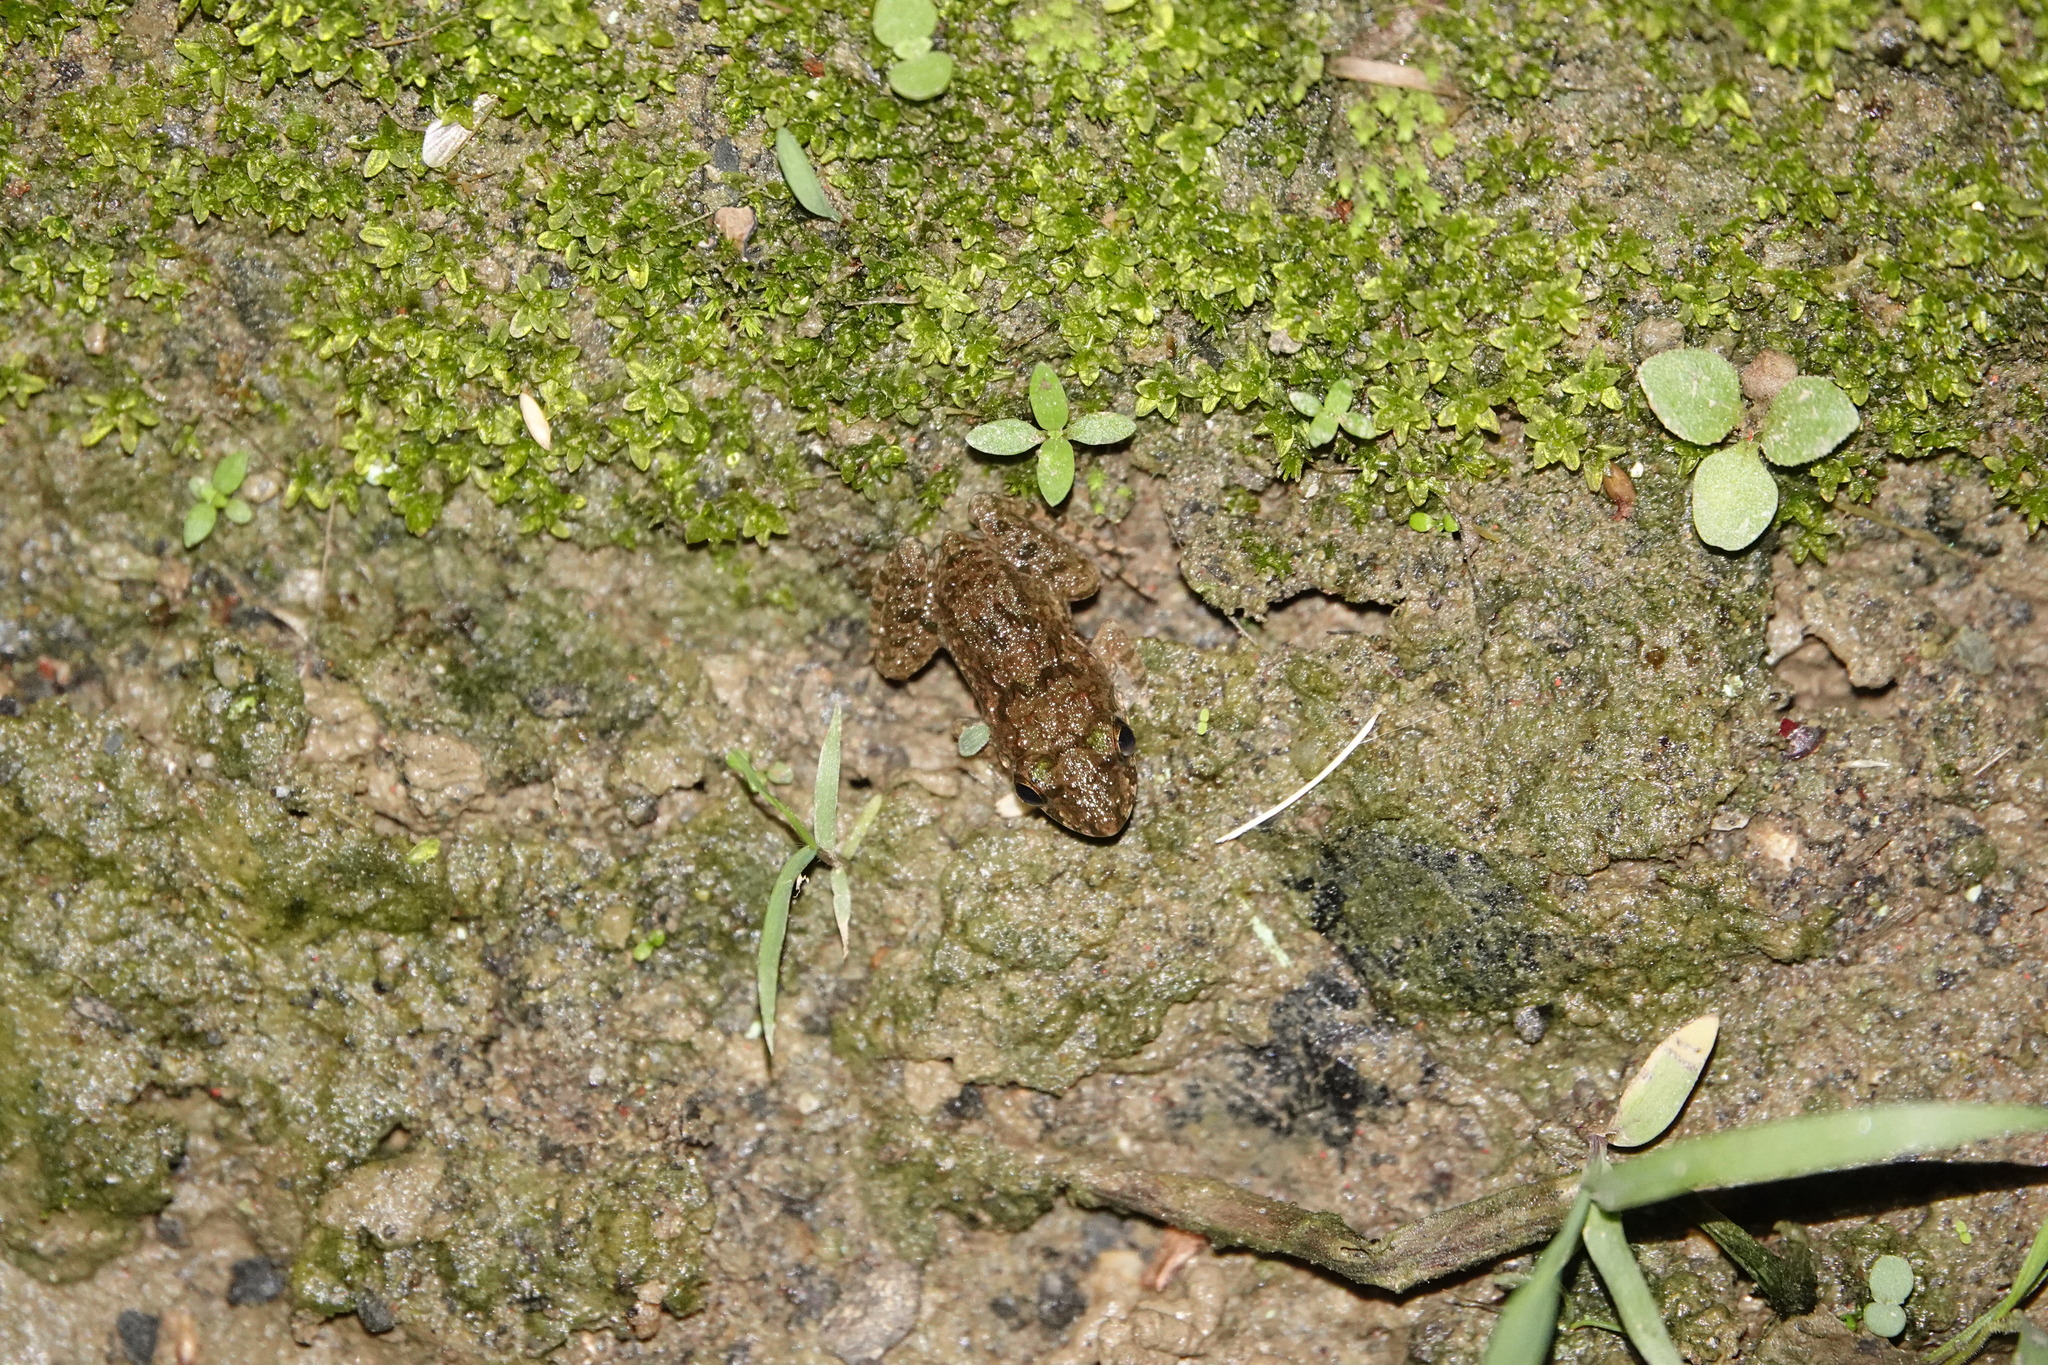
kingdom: Animalia
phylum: Chordata
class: Amphibia
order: Anura
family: Dicroglossidae
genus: Fejervarya
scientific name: Fejervarya limnocharis
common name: Asian grass frog/common pond frog/field frog/grass frog/indian rice frog
